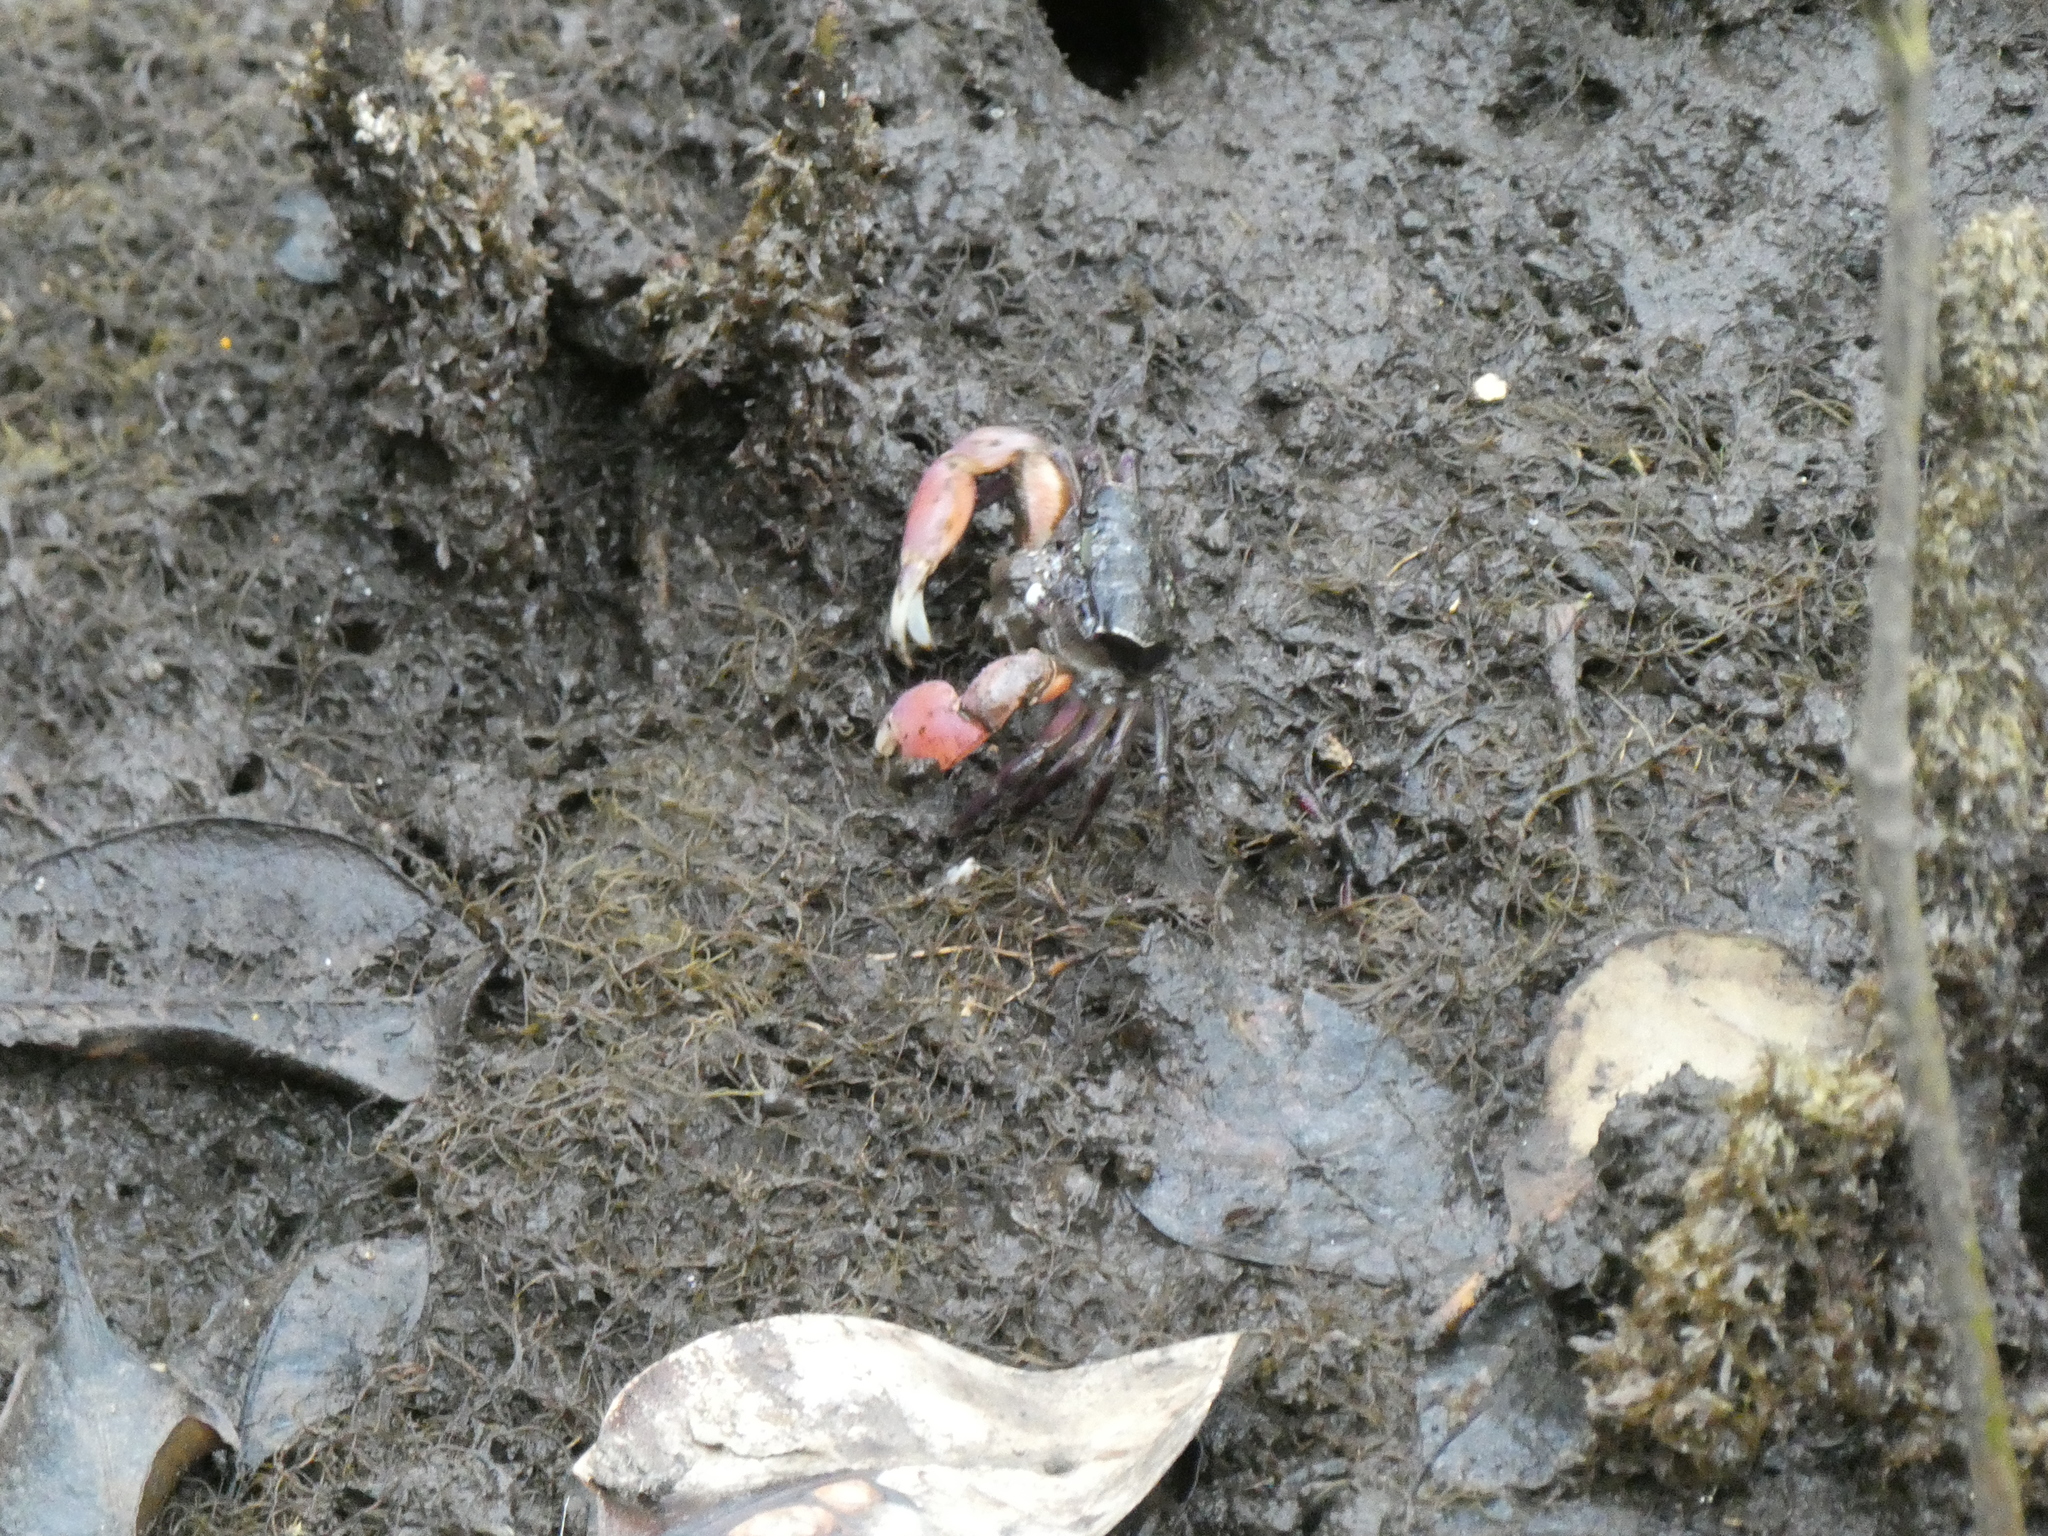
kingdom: Animalia
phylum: Arthropoda
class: Malacostraca
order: Decapoda
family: Heloeciidae
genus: Heloecius
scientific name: Heloecius cordiformis
